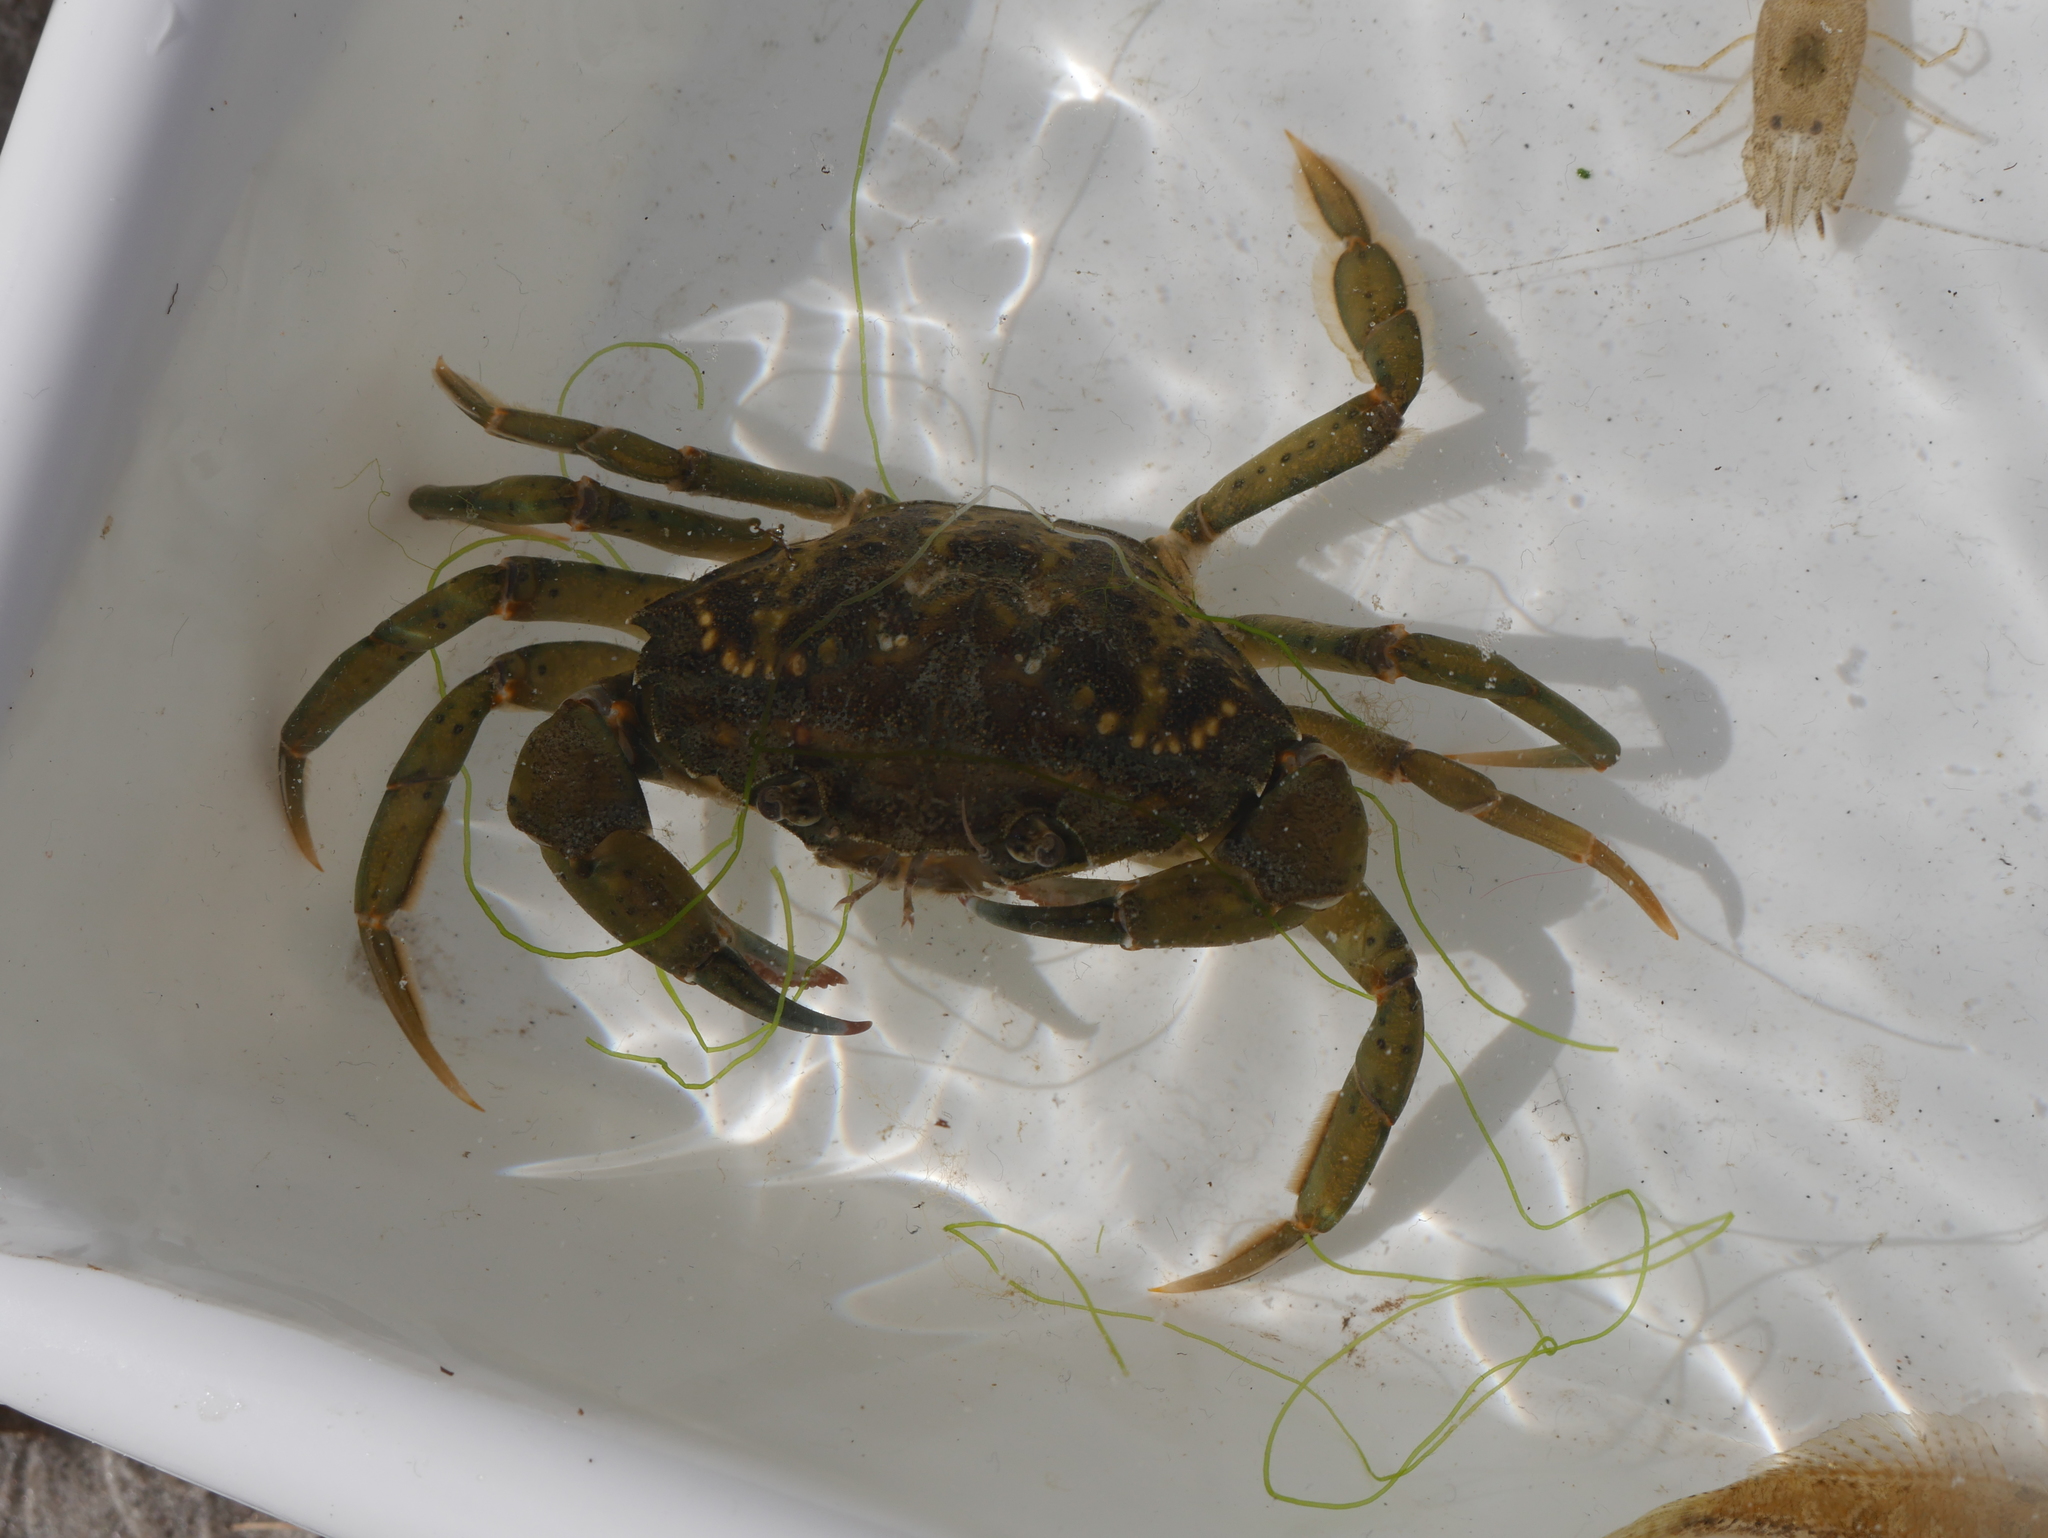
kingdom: Animalia
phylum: Arthropoda
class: Malacostraca
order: Decapoda
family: Carcinidae
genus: Carcinus
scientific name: Carcinus maenas
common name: European green crab
